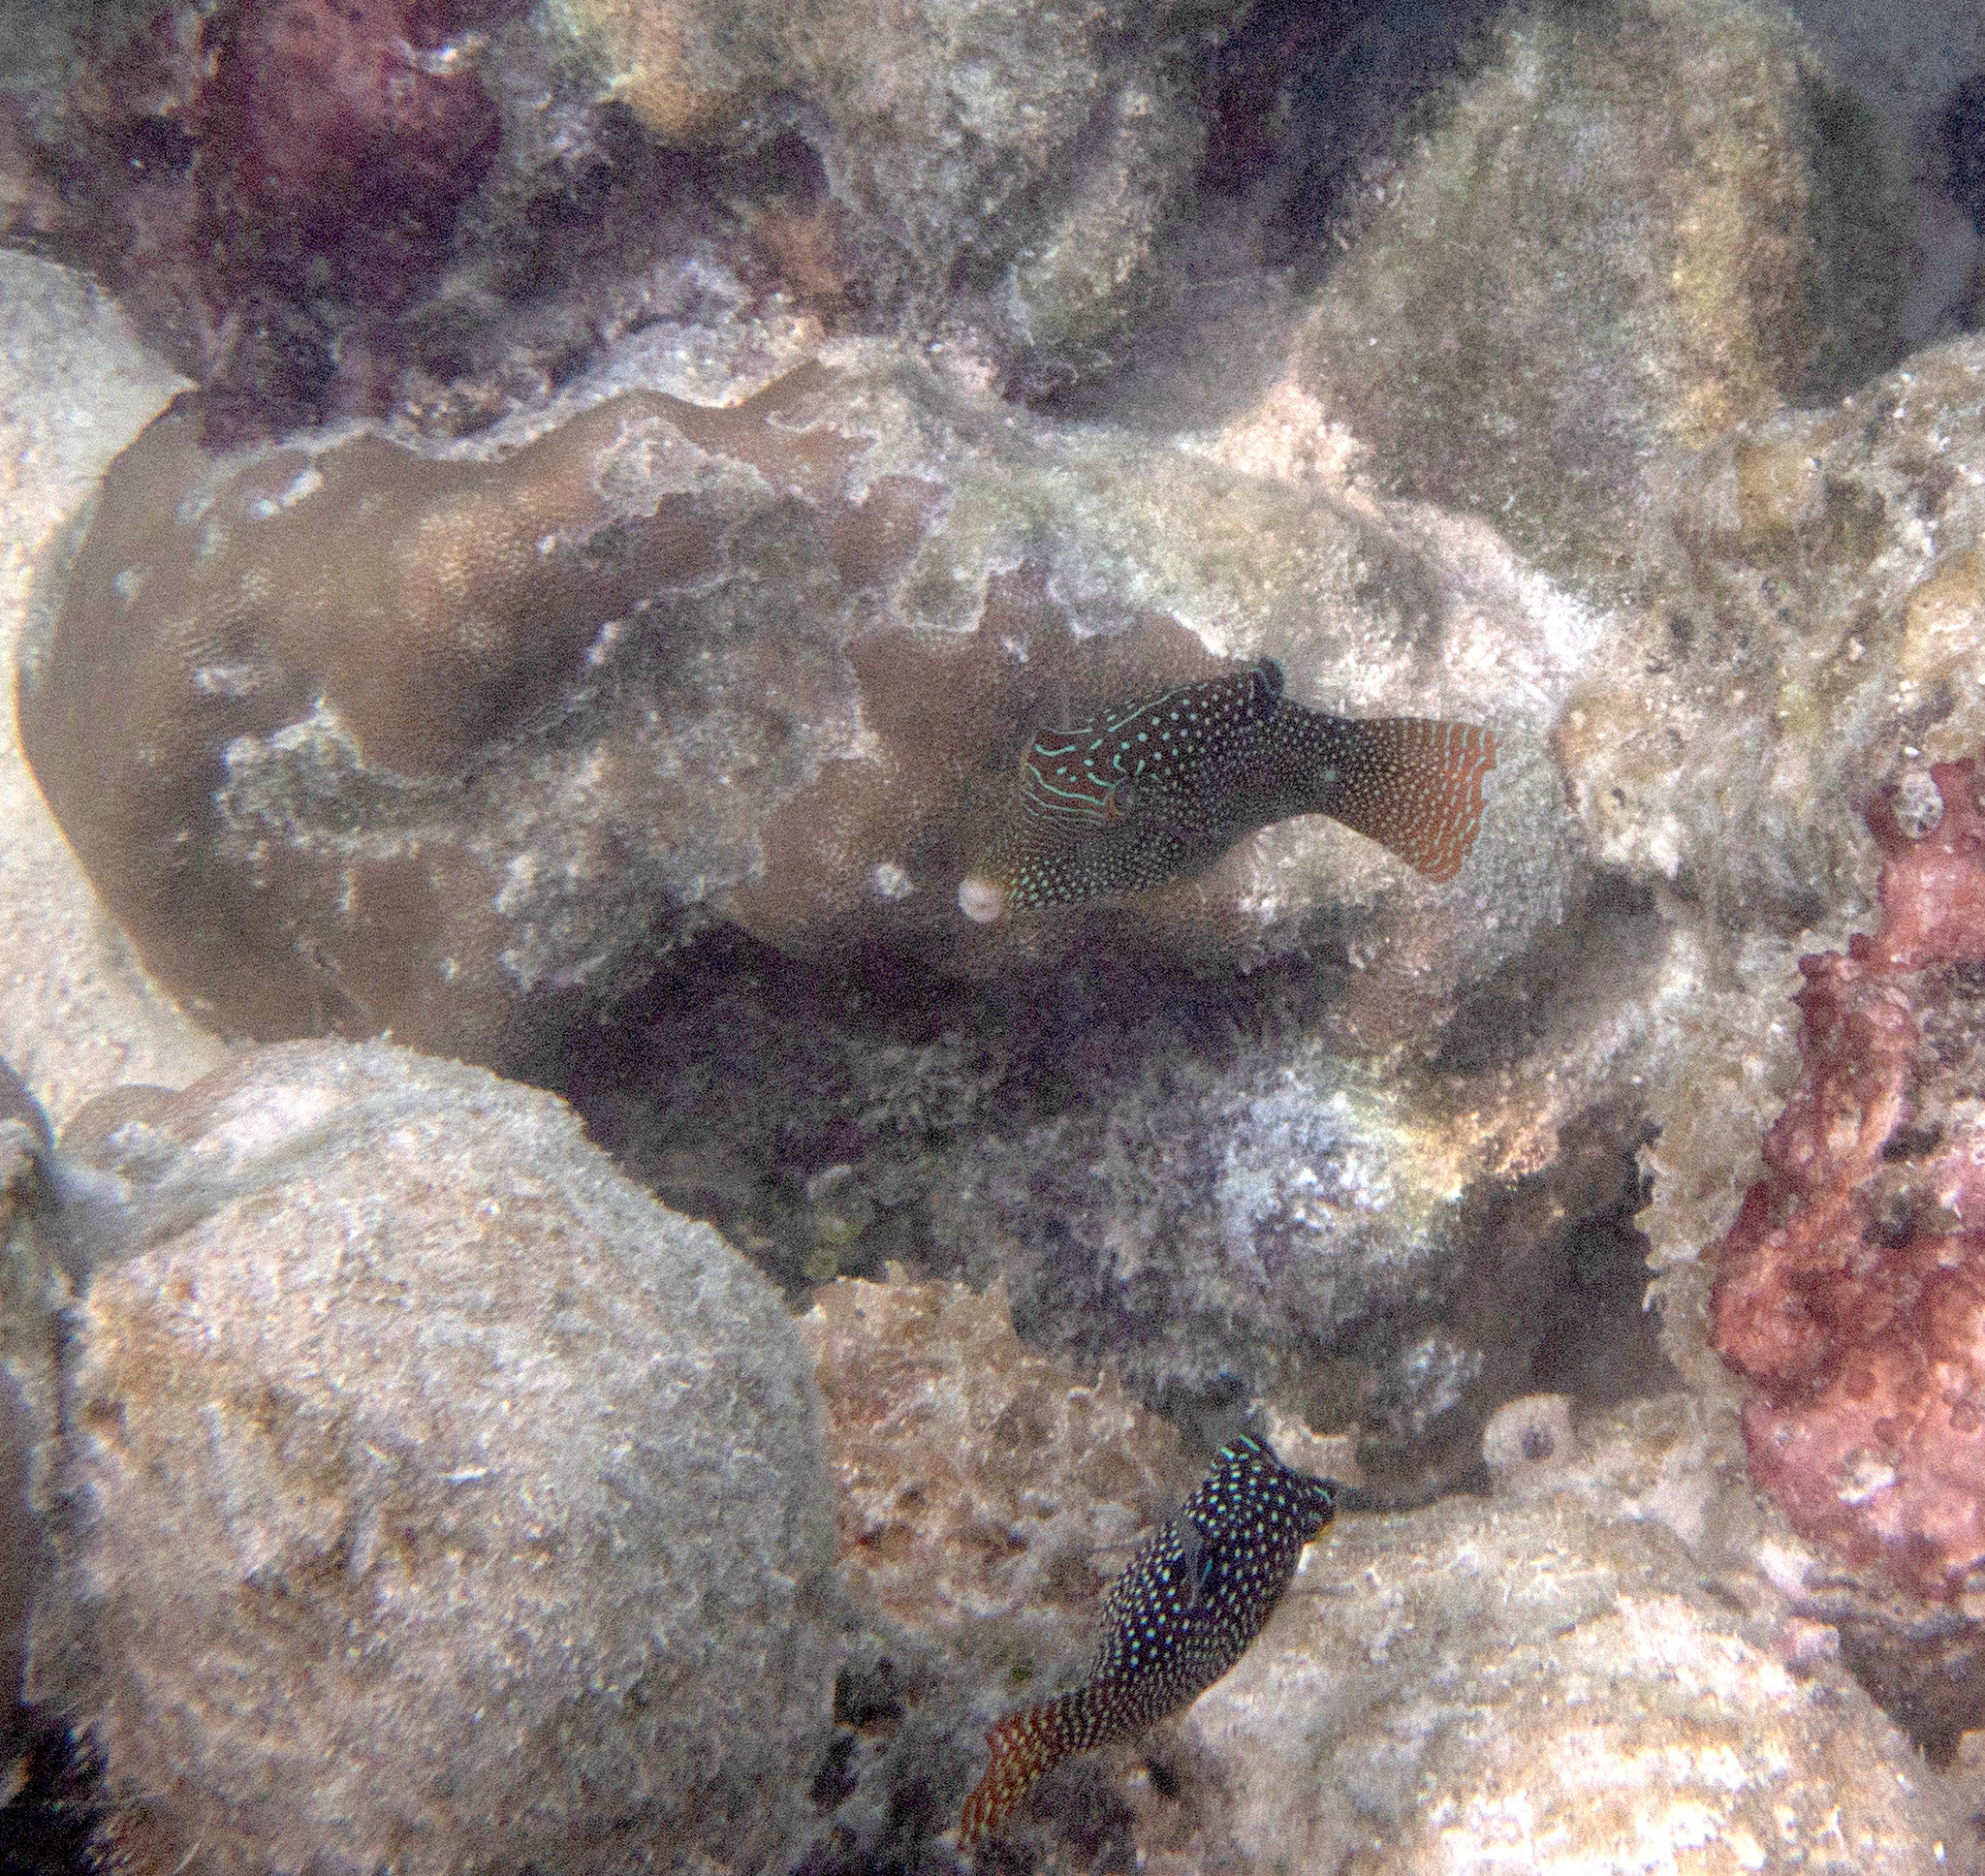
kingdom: Animalia
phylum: Chordata
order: Tetraodontiformes
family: Tetraodontidae
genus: Canthigaster
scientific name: Canthigaster solandri
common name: False-eye toby
